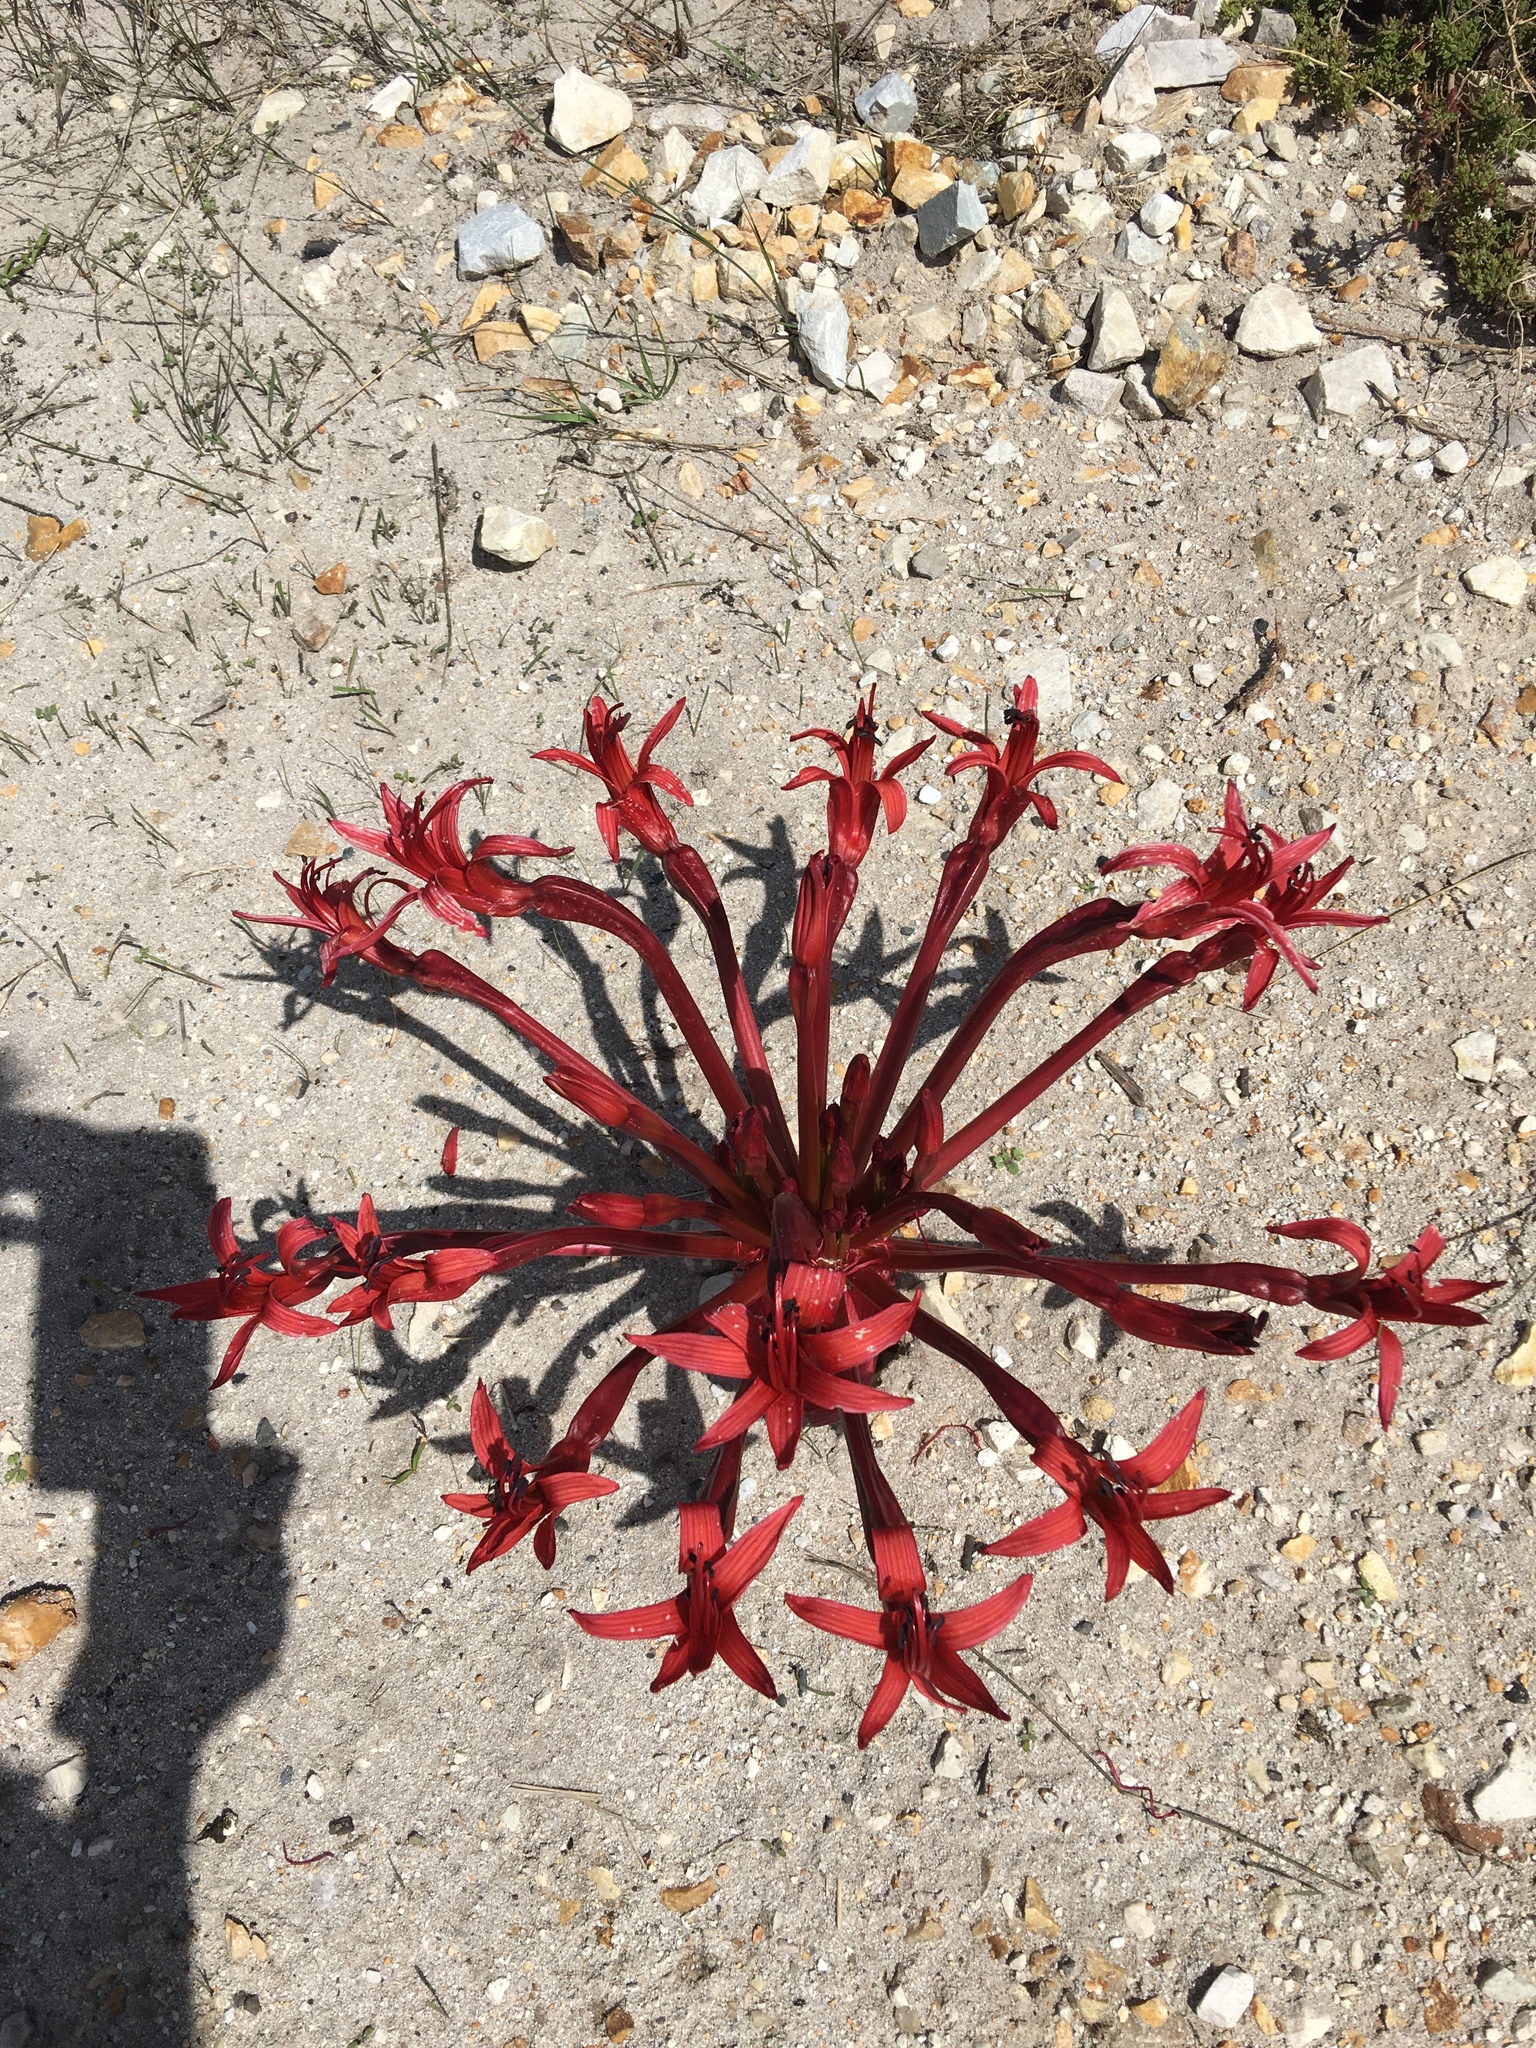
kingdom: Plantae
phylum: Tracheophyta
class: Liliopsida
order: Asparagales
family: Amaryllidaceae
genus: Brunsvigia
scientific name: Brunsvigia orientalis
